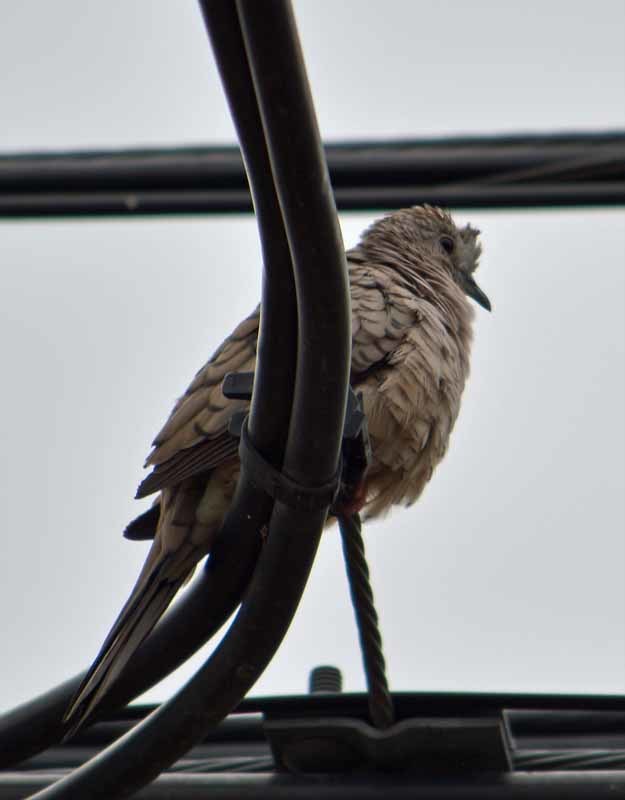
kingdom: Animalia
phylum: Chordata
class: Aves
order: Columbiformes
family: Columbidae
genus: Columbina
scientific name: Columbina inca
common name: Inca dove
